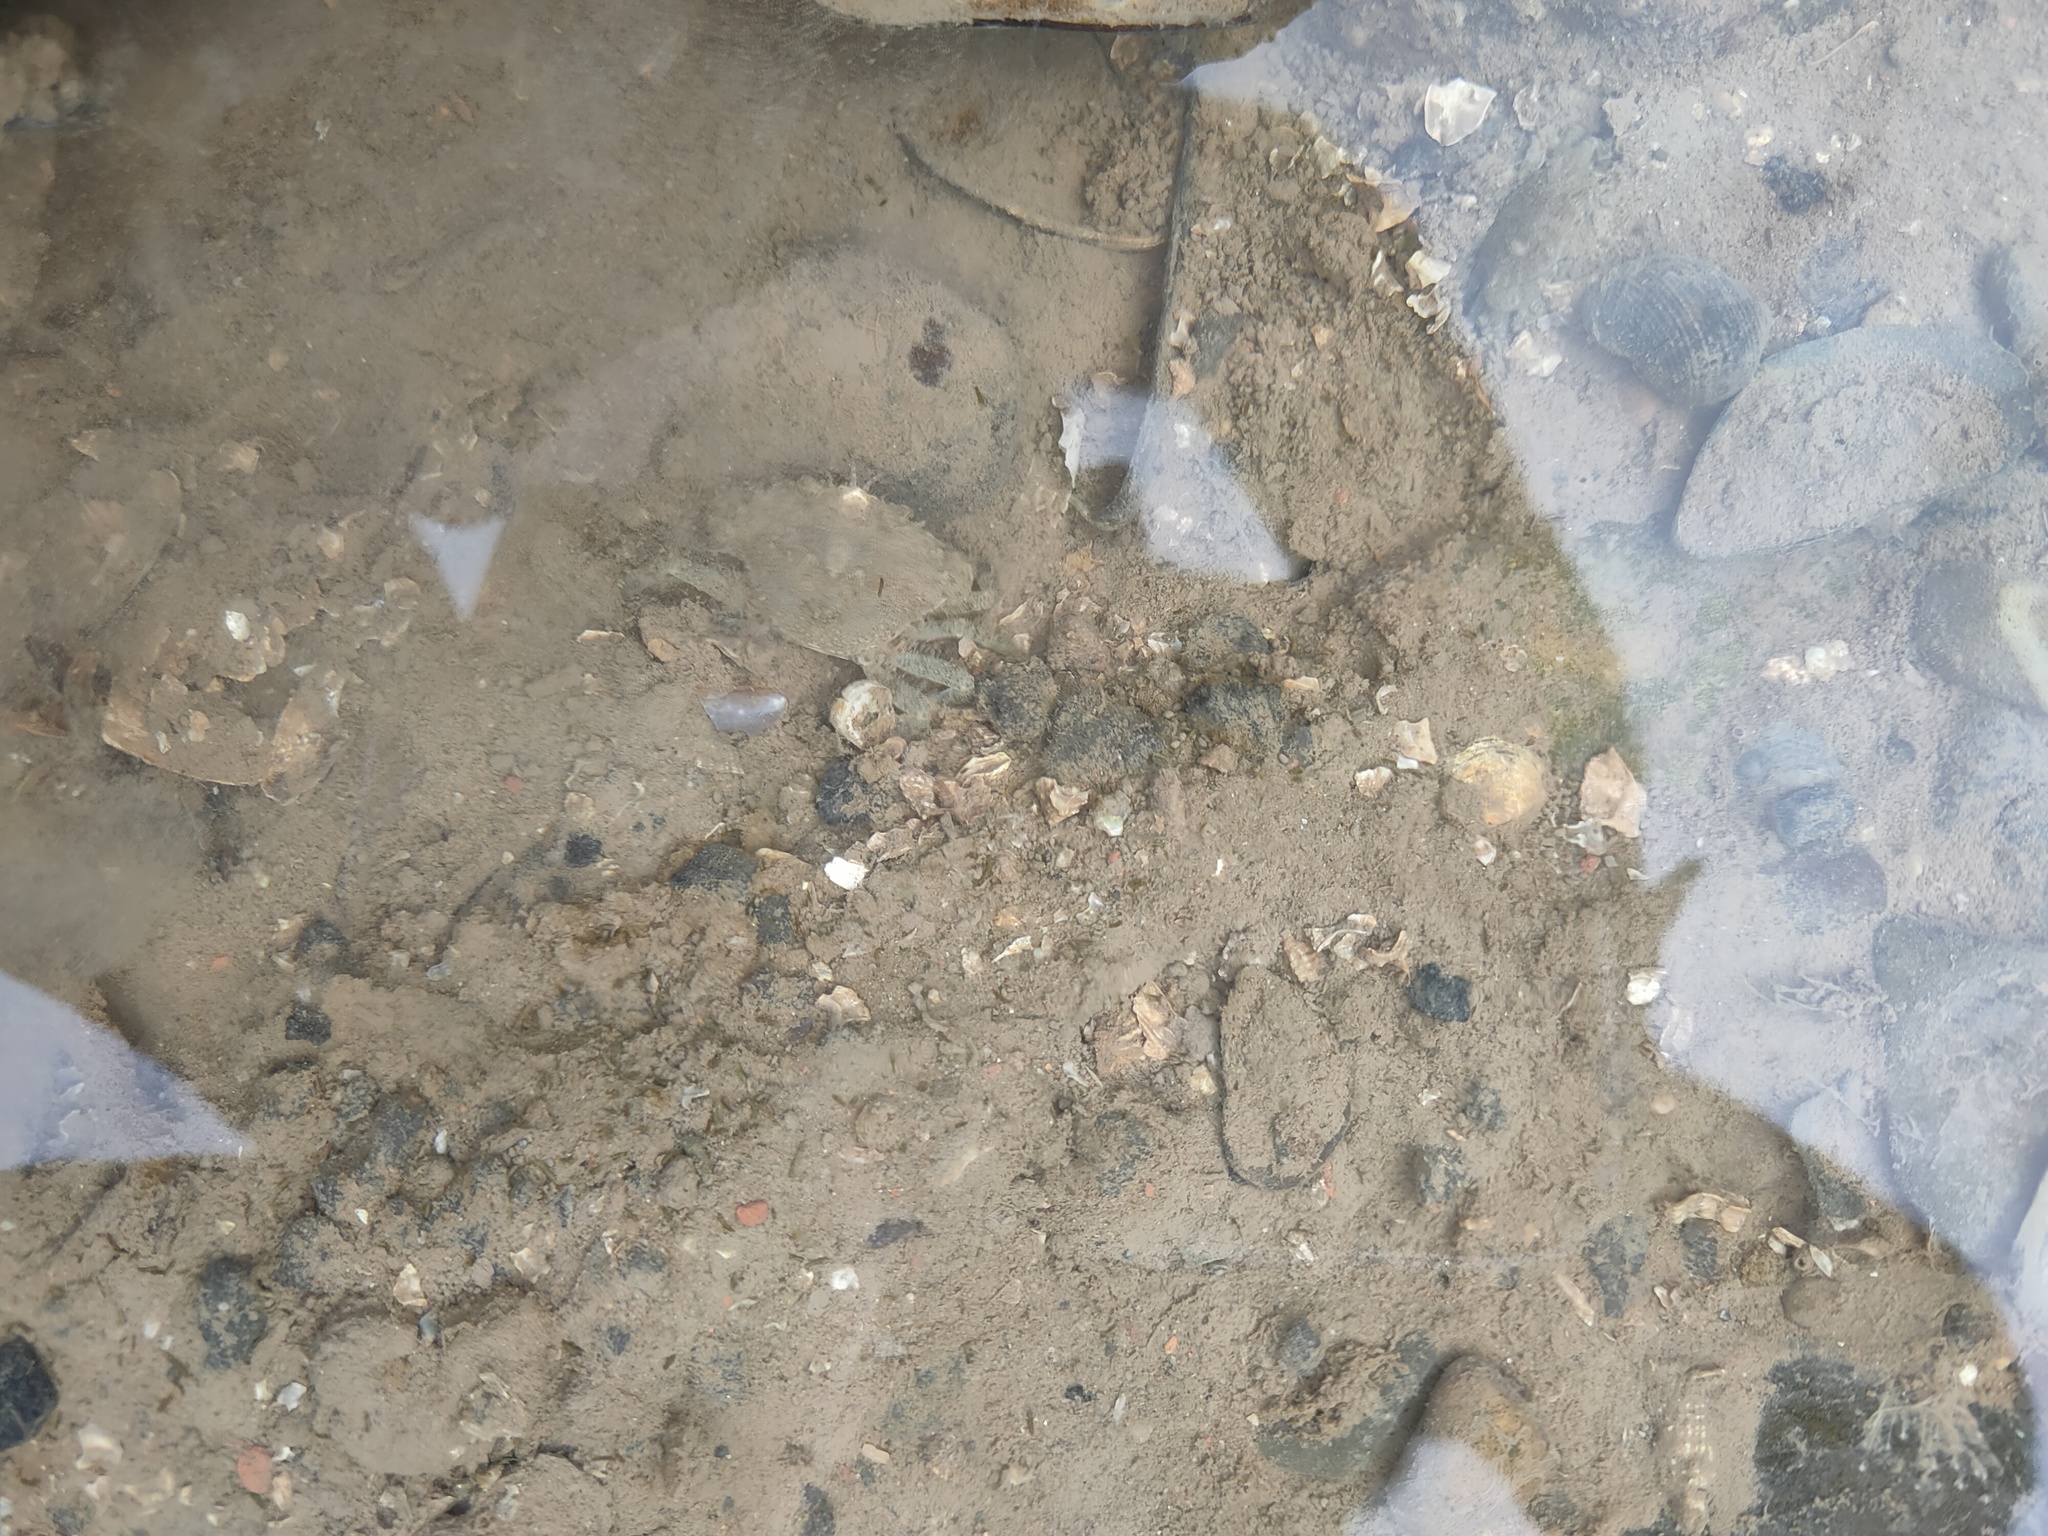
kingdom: Animalia
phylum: Arthropoda
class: Malacostraca
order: Decapoda
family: Carcinidae
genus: Carcinus
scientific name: Carcinus maenas
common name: European green crab
